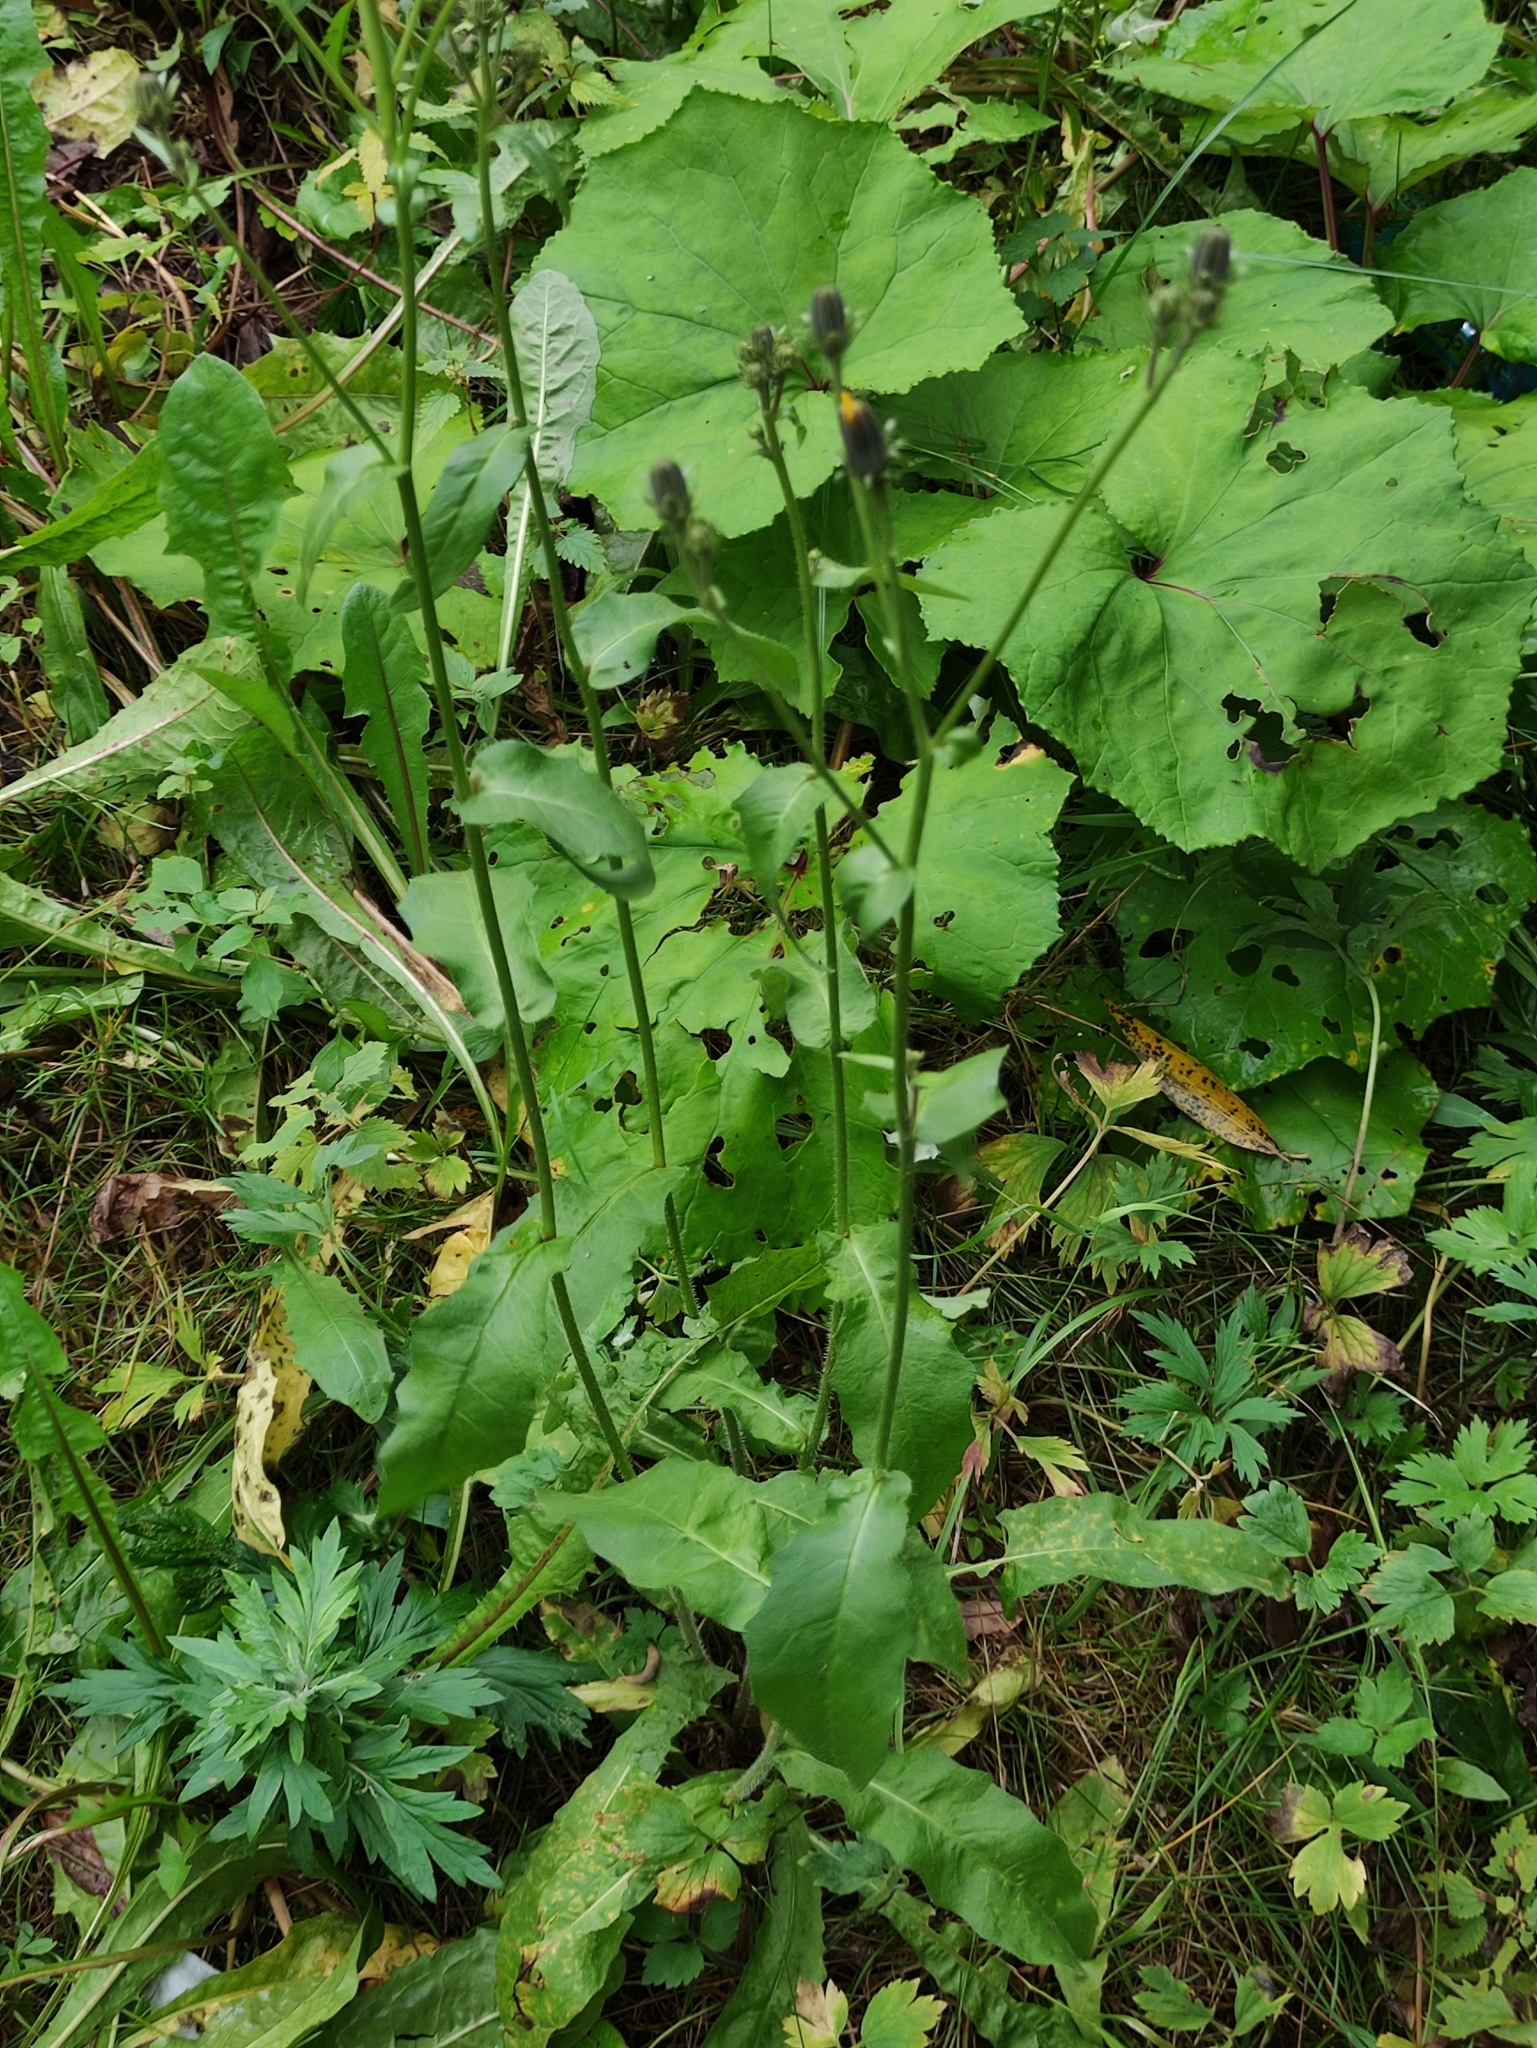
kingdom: Plantae
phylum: Tracheophyta
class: Magnoliopsida
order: Asterales
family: Asteraceae
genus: Picris
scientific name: Picris hieracioides
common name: Hawkweed oxtongue
